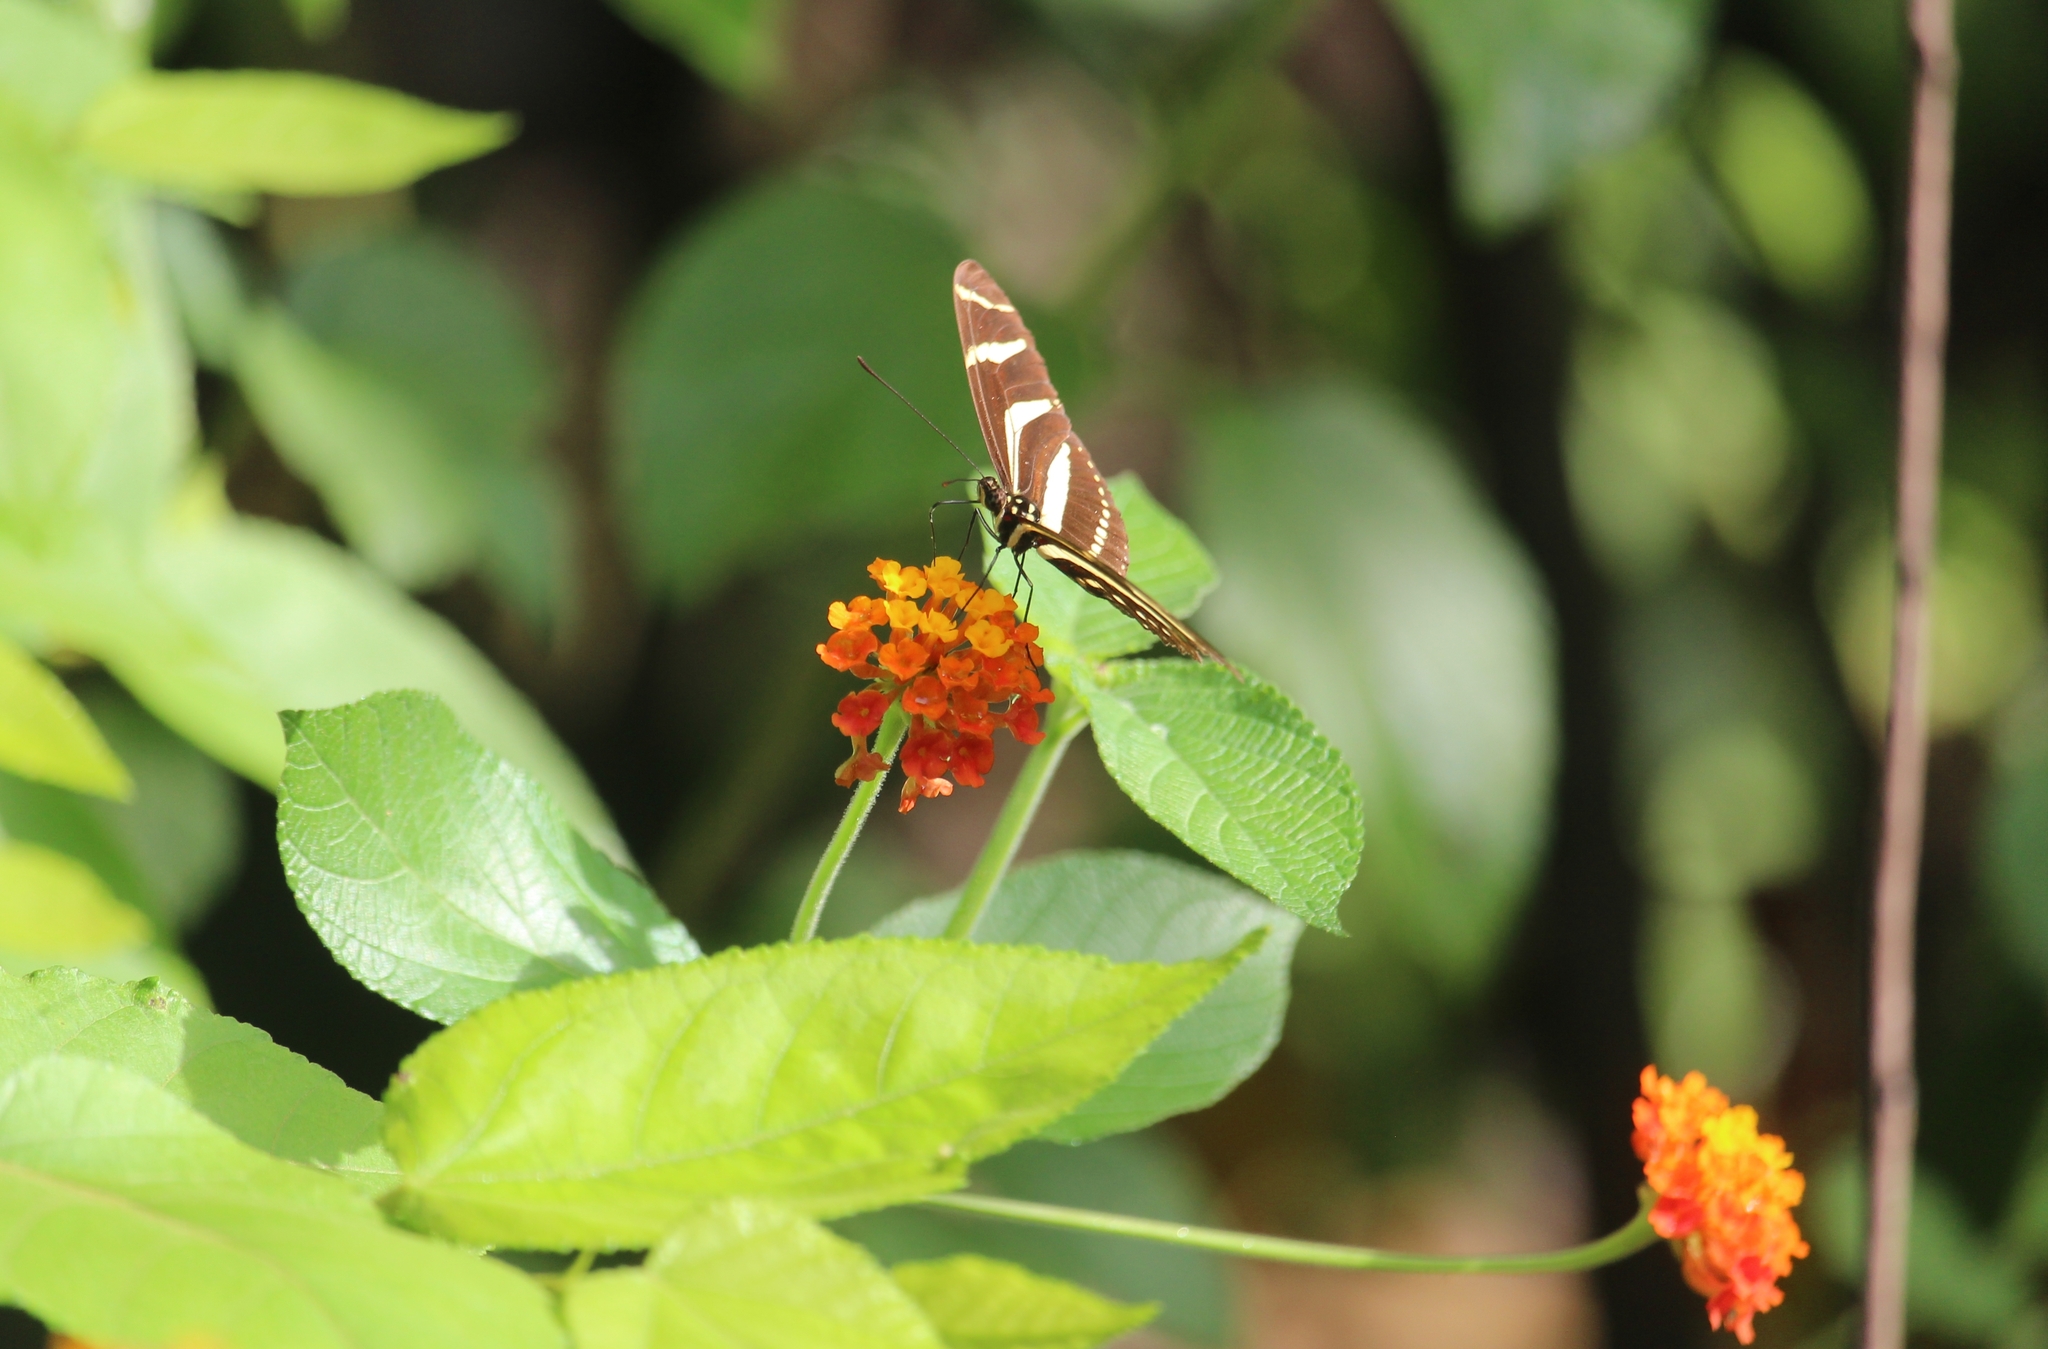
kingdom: Animalia
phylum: Arthropoda
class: Insecta
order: Lepidoptera
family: Nymphalidae
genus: Heliconius
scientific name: Heliconius charithonia
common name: Zebra long wing
